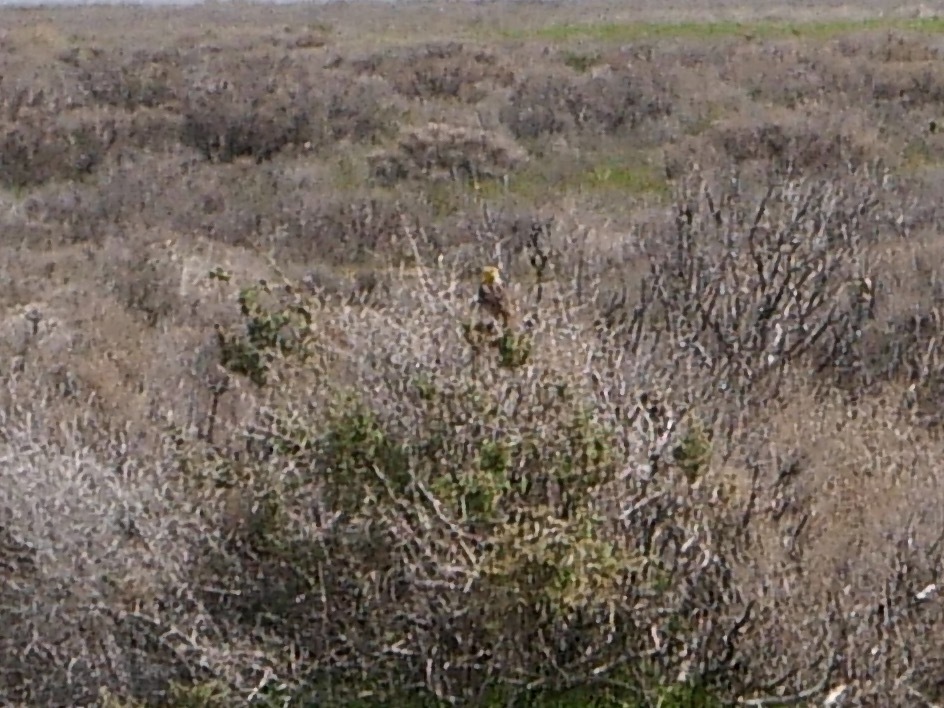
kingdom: Animalia
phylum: Chordata
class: Aves
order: Passeriformes
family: Icteridae
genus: Sturnella
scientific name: Sturnella neglecta
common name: Western meadowlark
